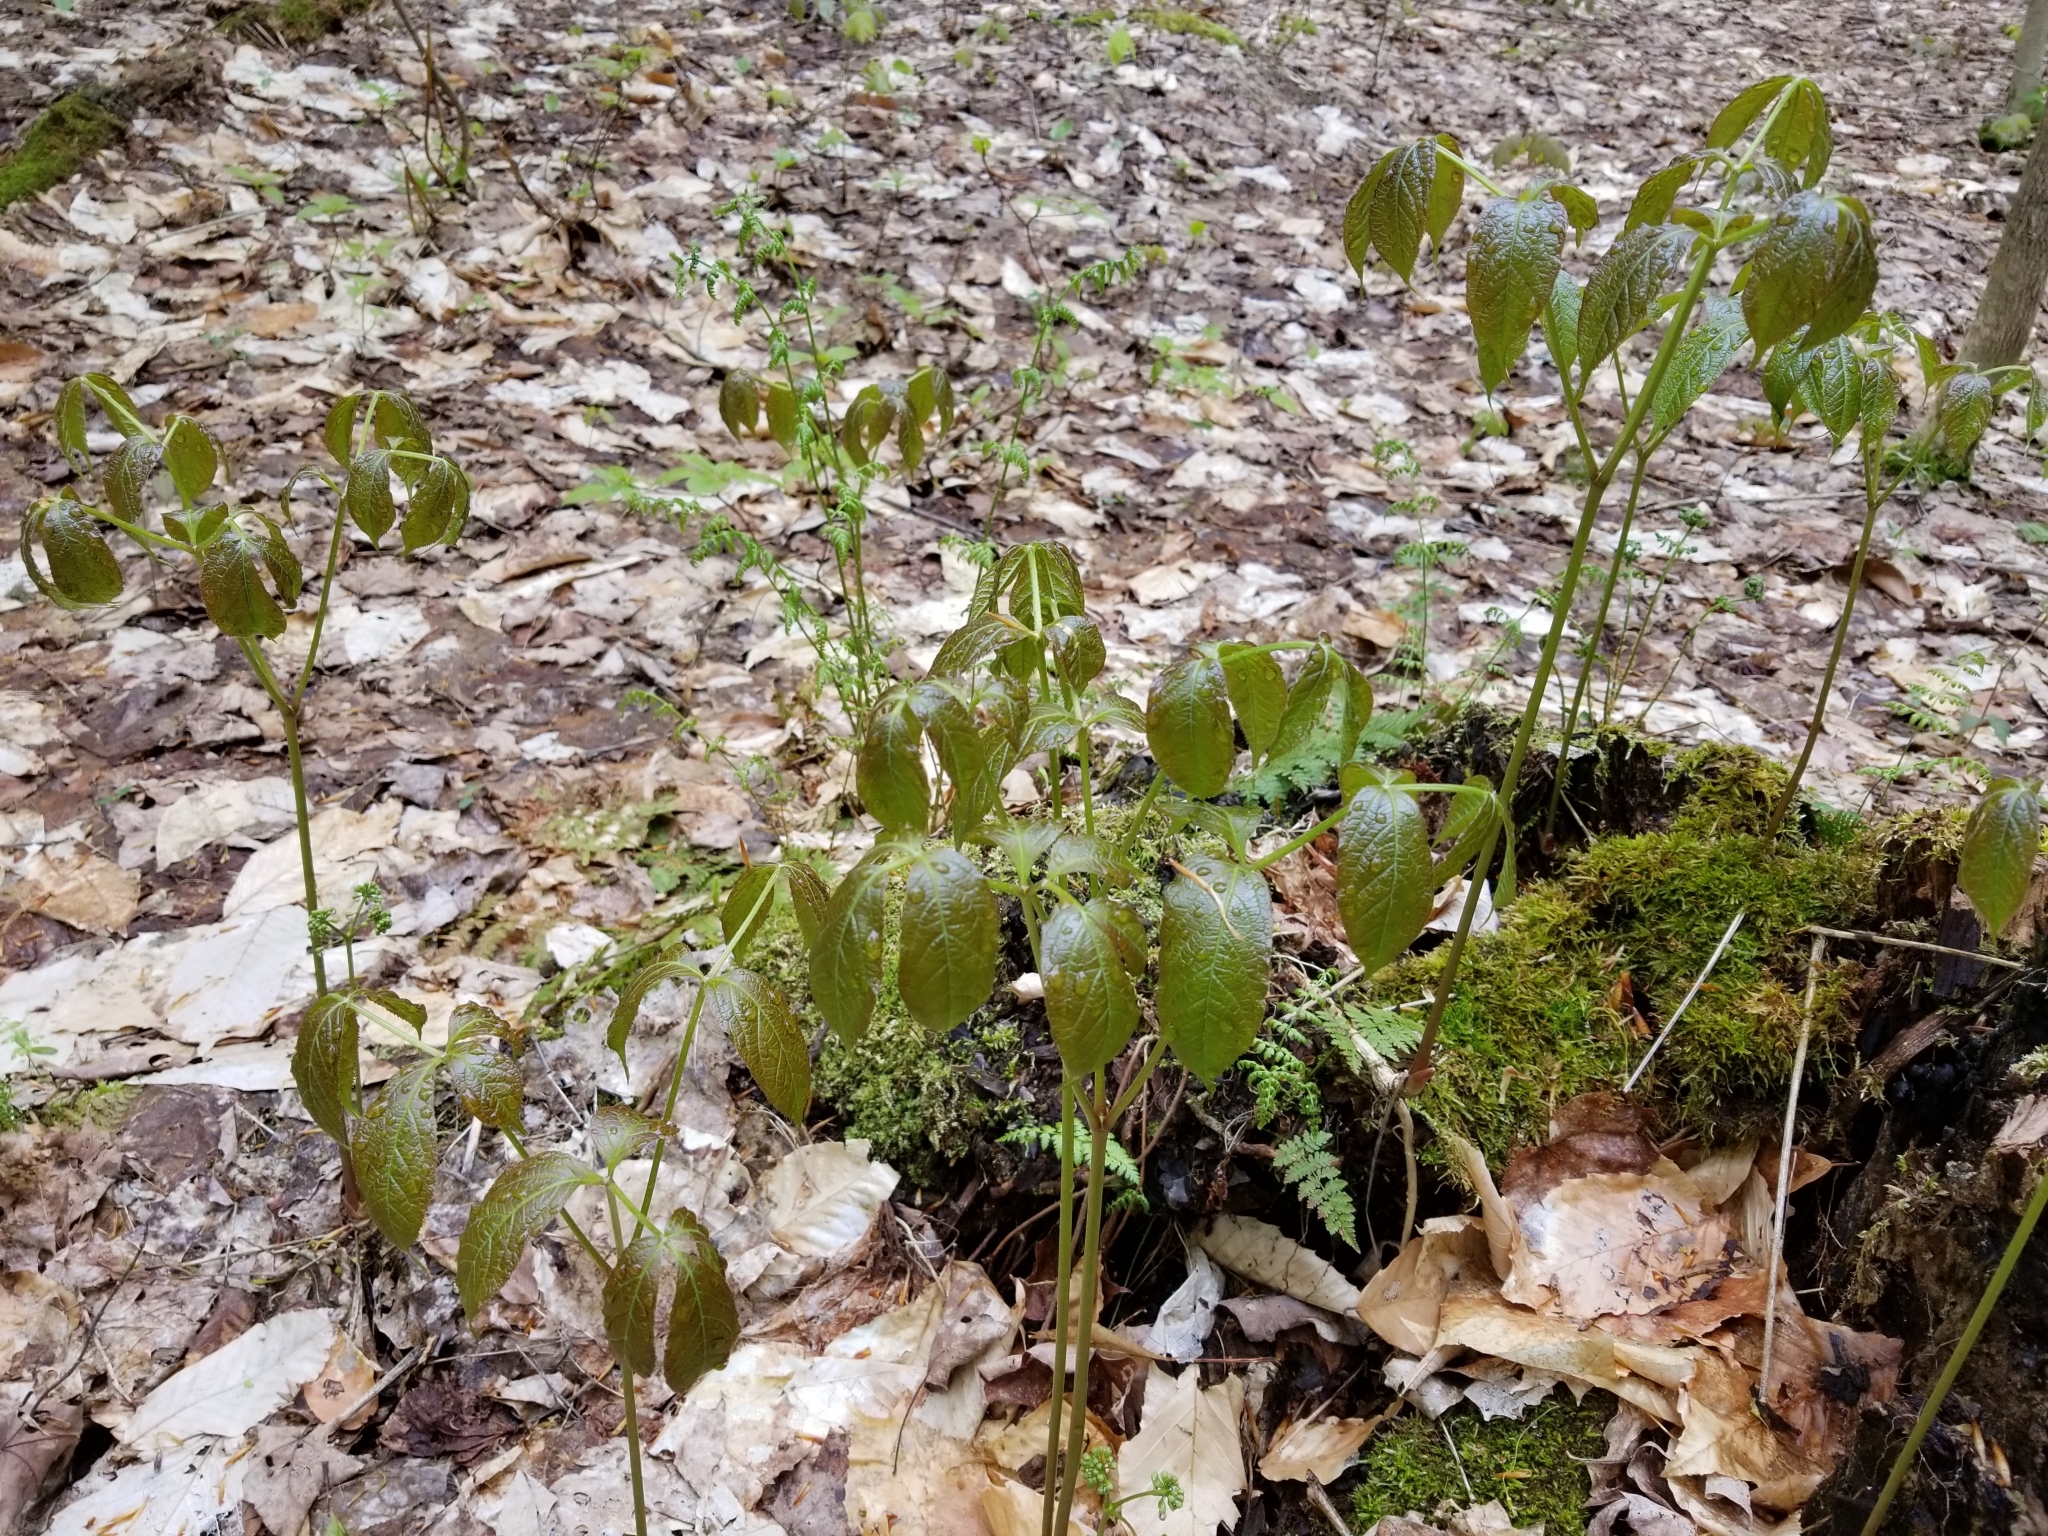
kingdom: Plantae
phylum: Tracheophyta
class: Magnoliopsida
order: Apiales
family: Araliaceae
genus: Aralia
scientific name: Aralia nudicaulis
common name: Wild sarsaparilla
